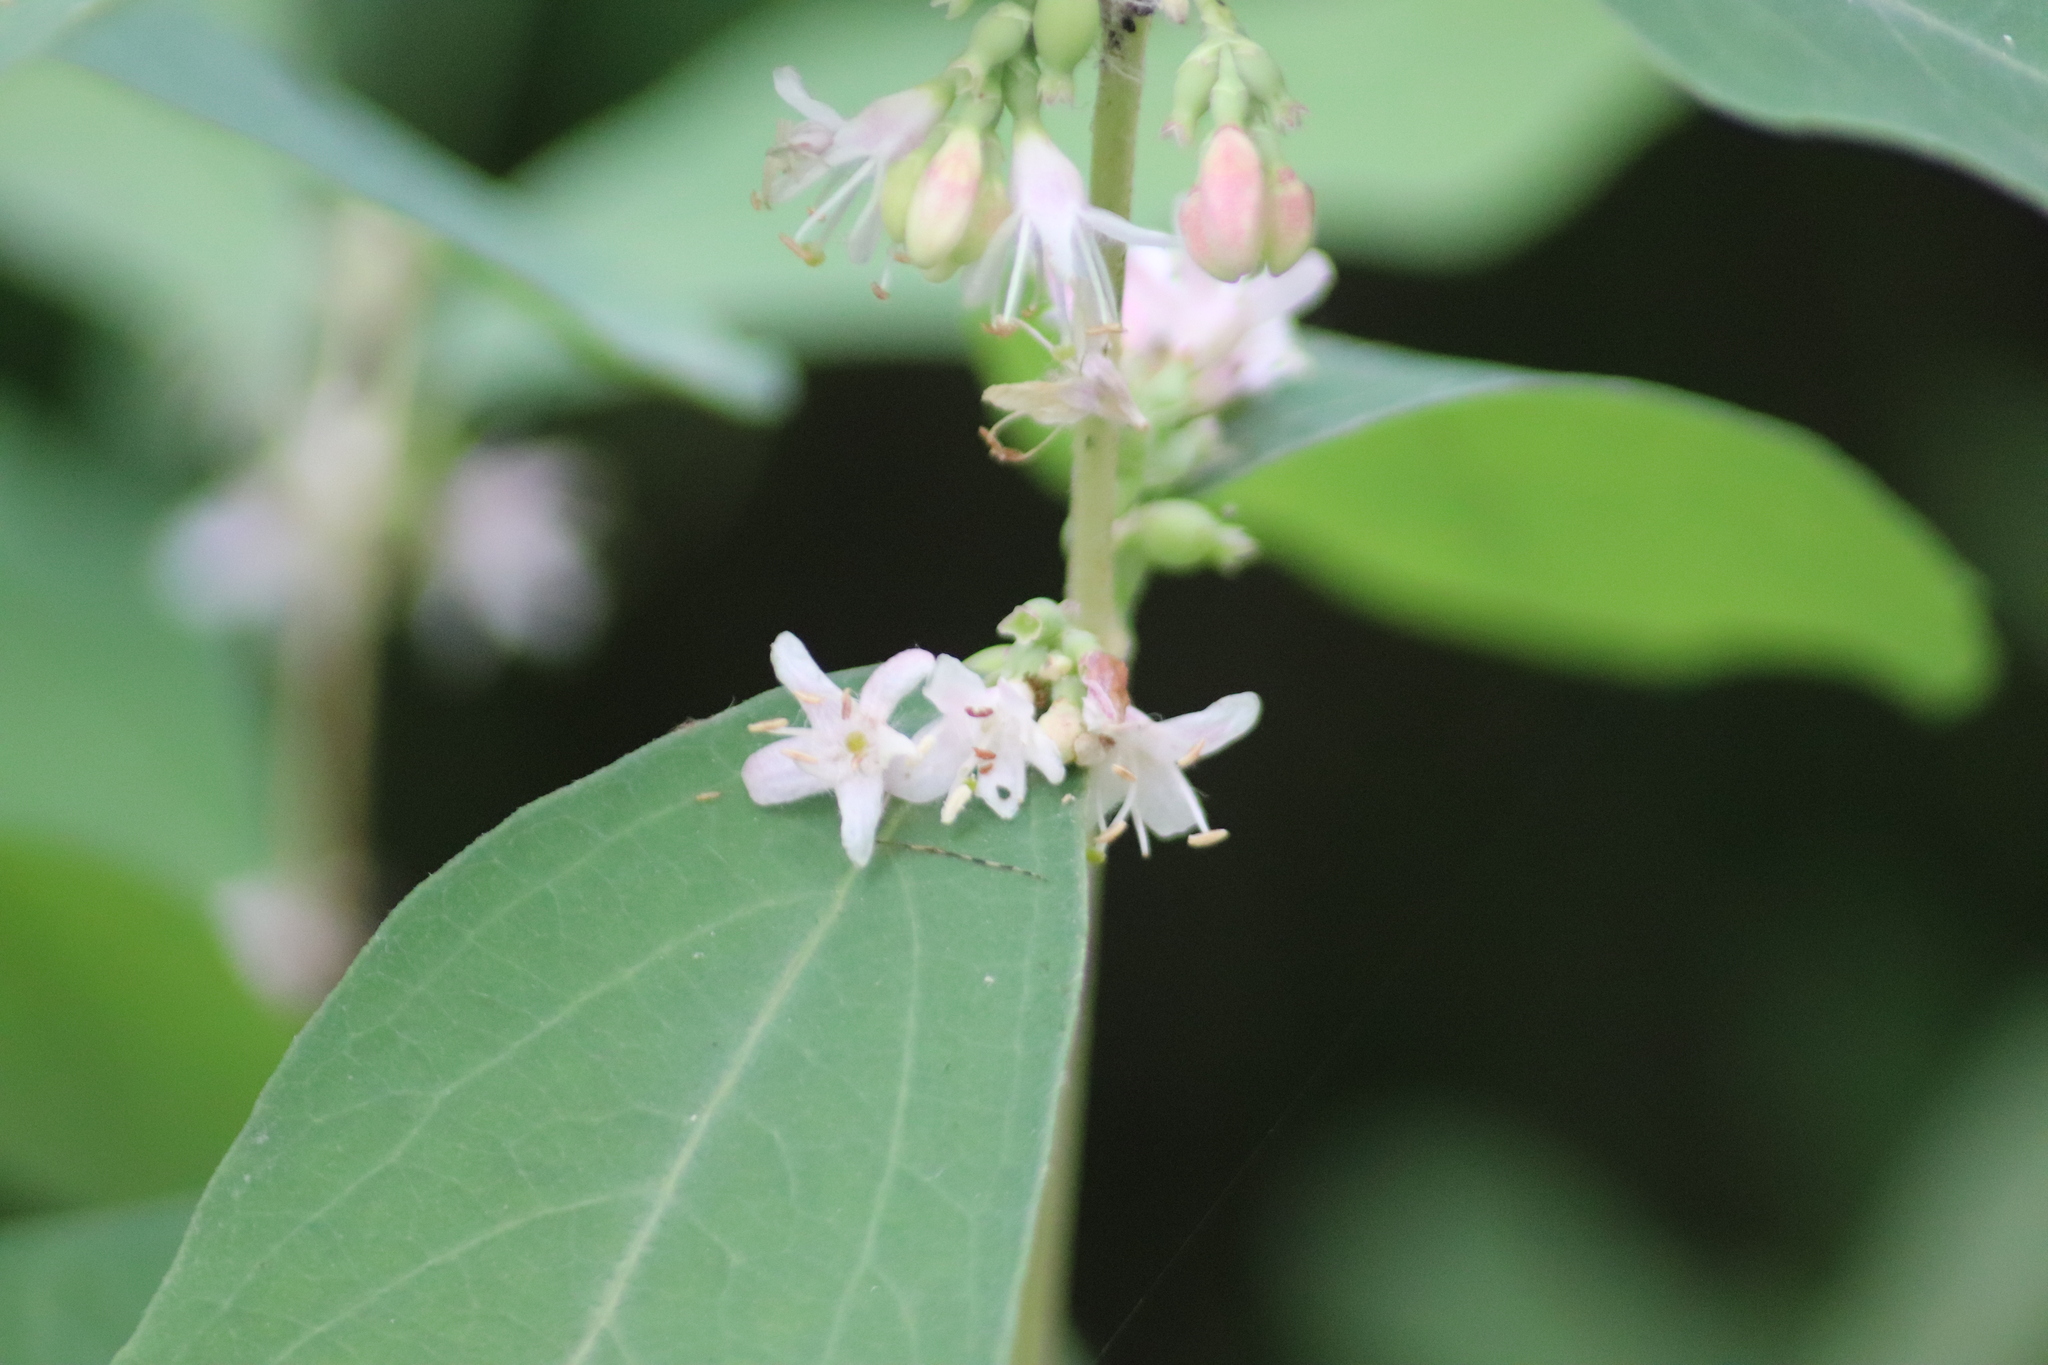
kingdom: Plantae
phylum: Tracheophyta
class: Magnoliopsida
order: Dipsacales
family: Caprifoliaceae
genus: Symphoricarpos
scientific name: Symphoricarpos occidentalis
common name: Wolfberry
